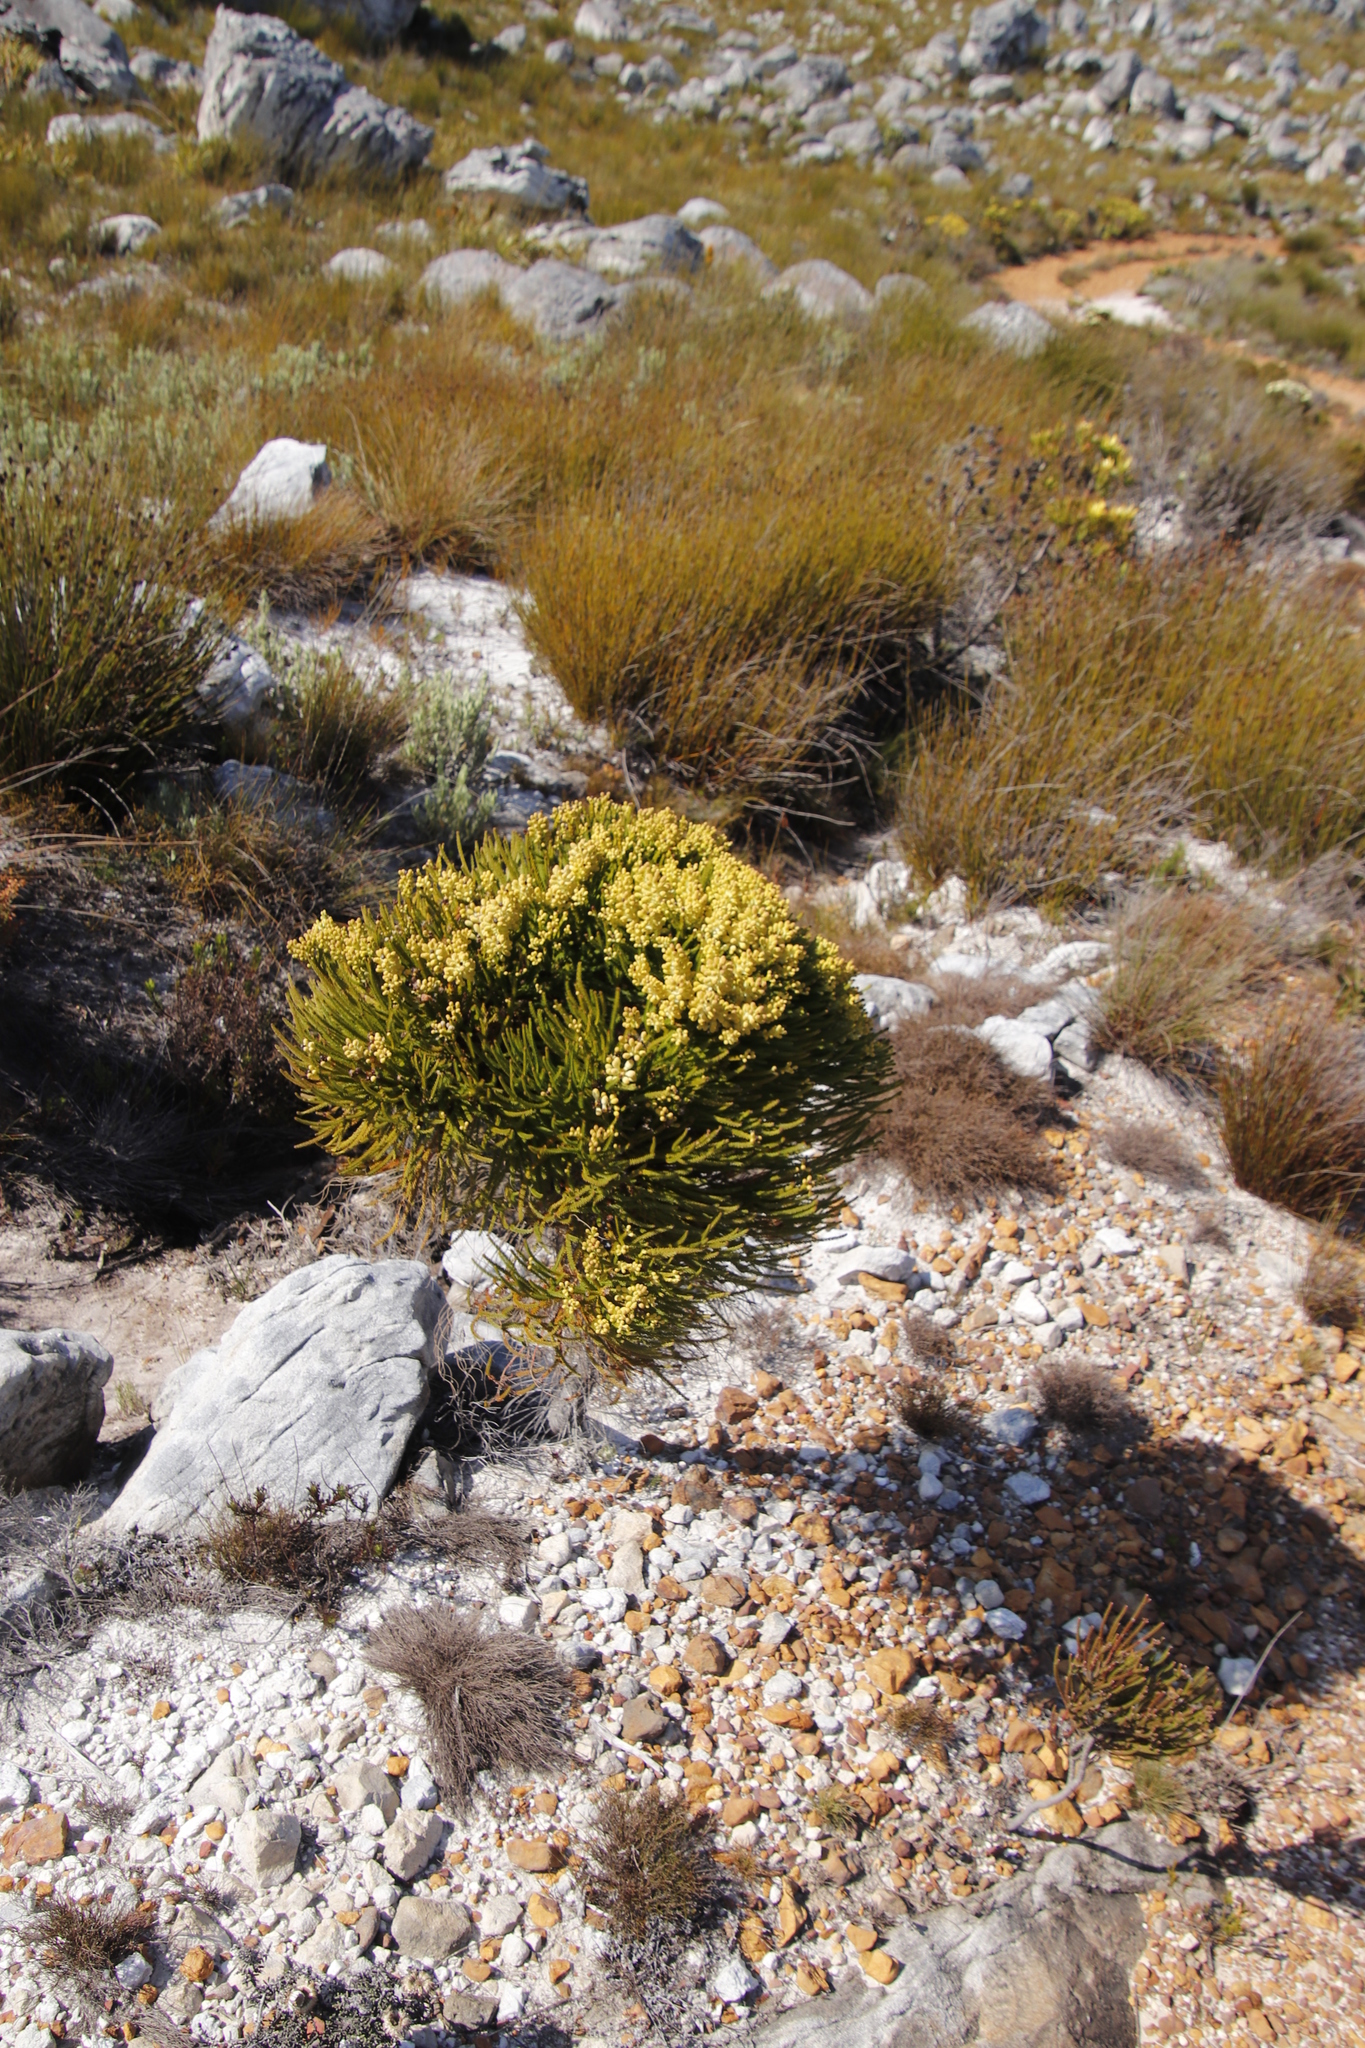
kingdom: Plantae
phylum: Tracheophyta
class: Magnoliopsida
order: Bruniales
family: Bruniaceae
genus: Berzelia
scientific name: Berzelia alopecurioides
